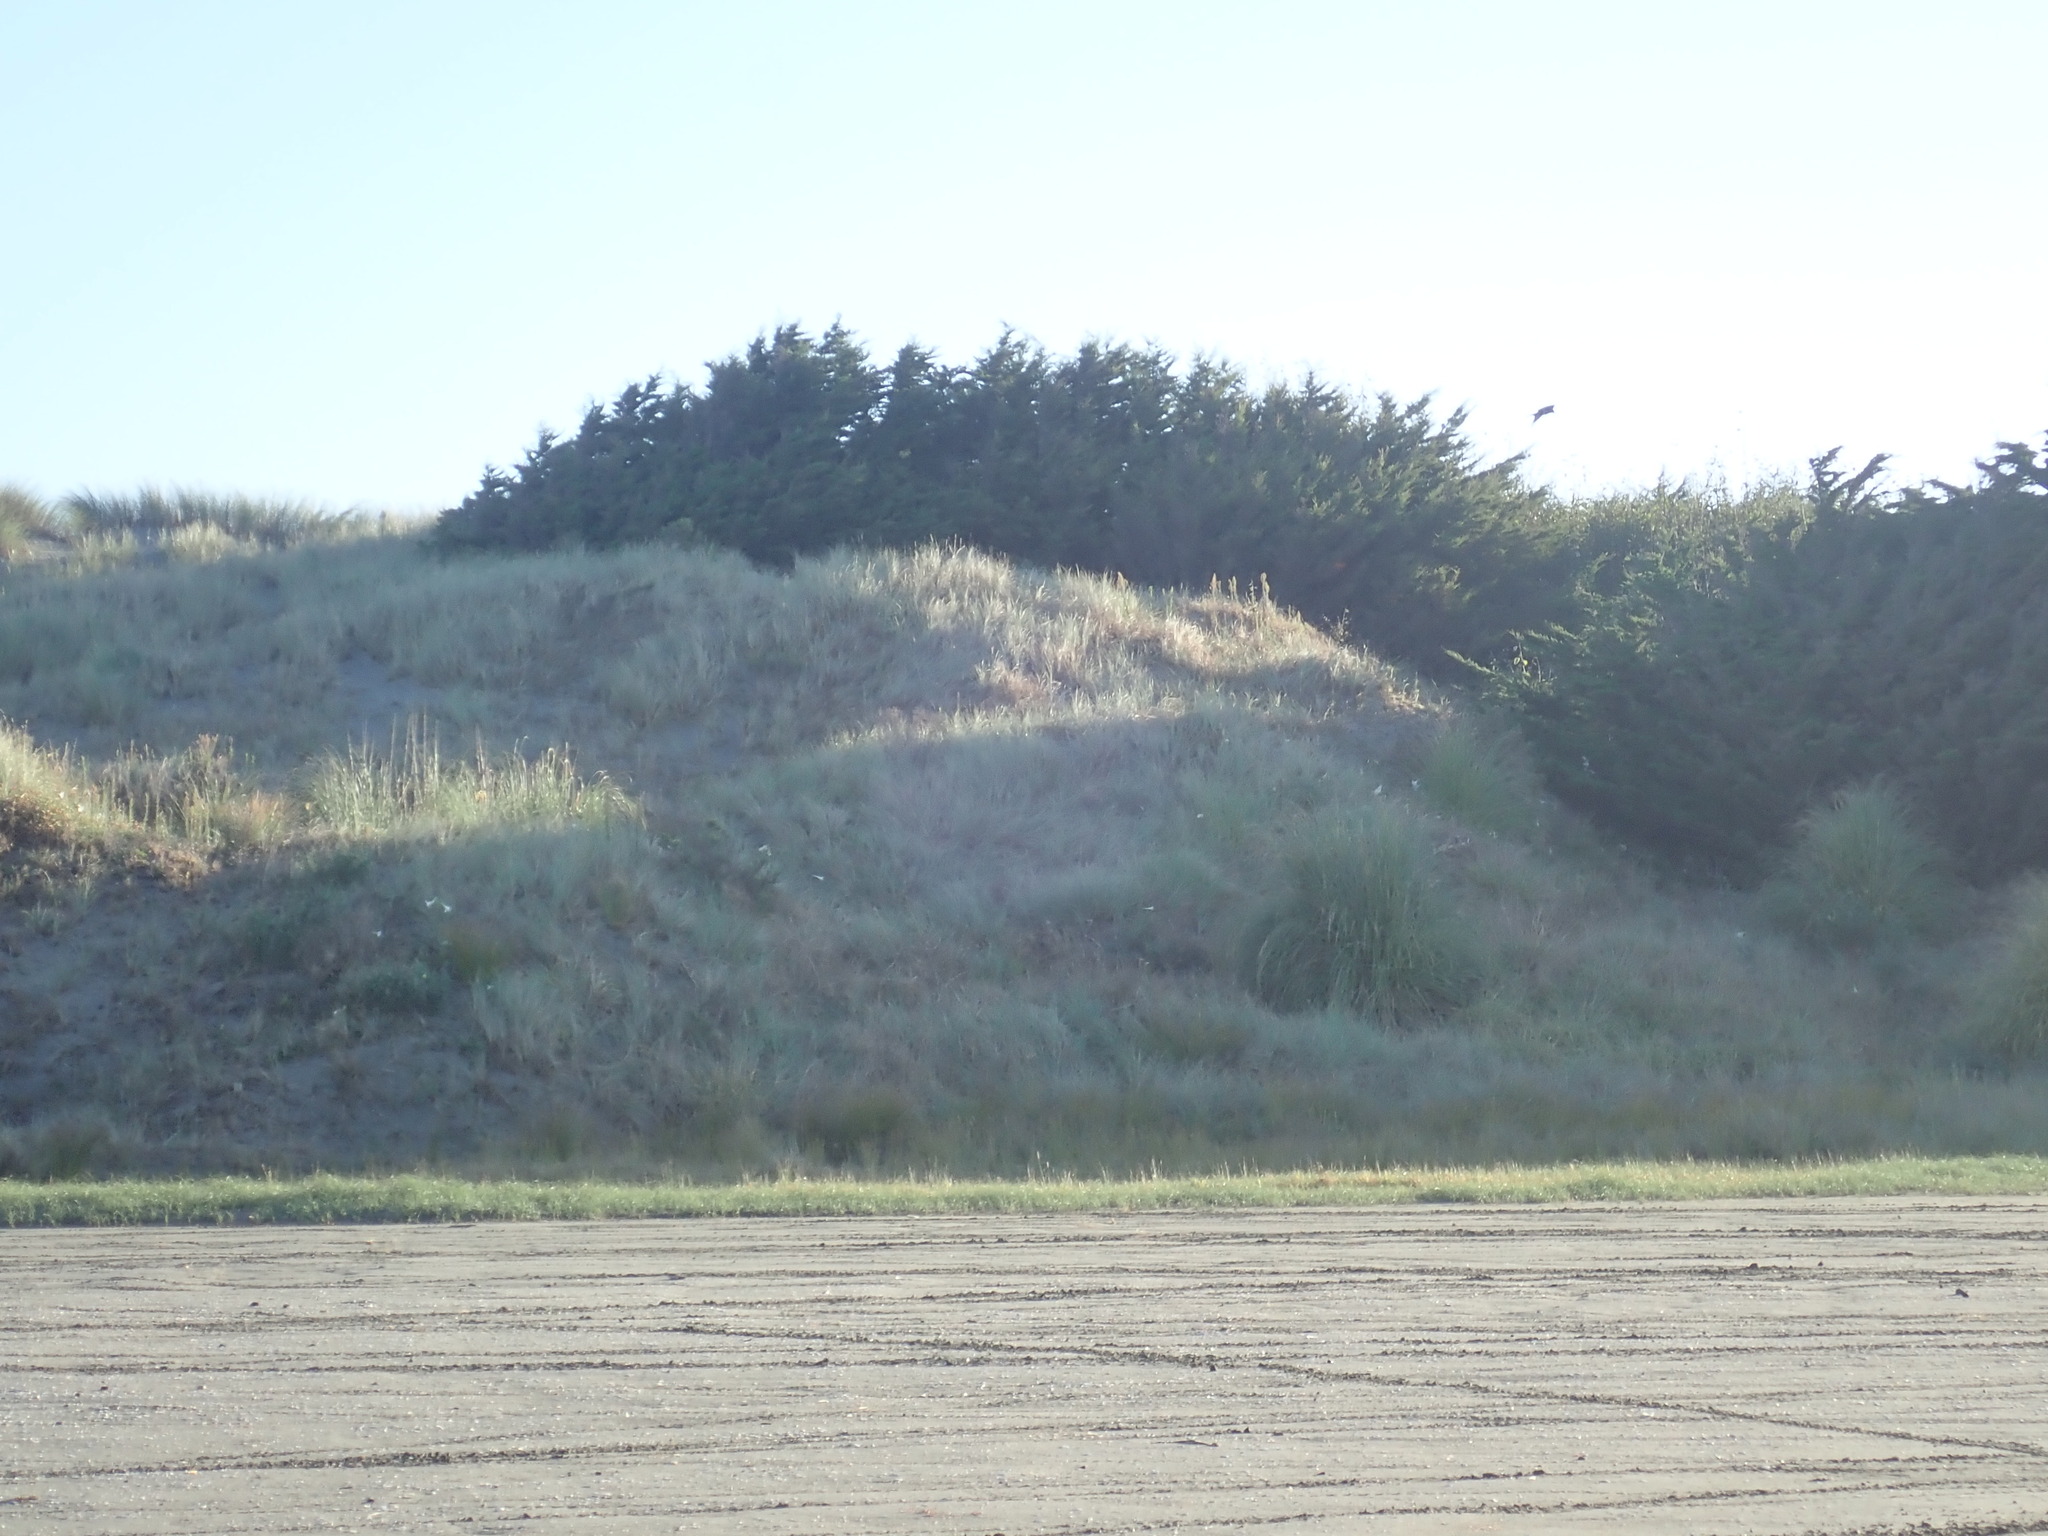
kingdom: Animalia
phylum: Chordata
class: Aves
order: Accipitriformes
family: Accipitridae
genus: Circus
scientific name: Circus approximans
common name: Swamp harrier
